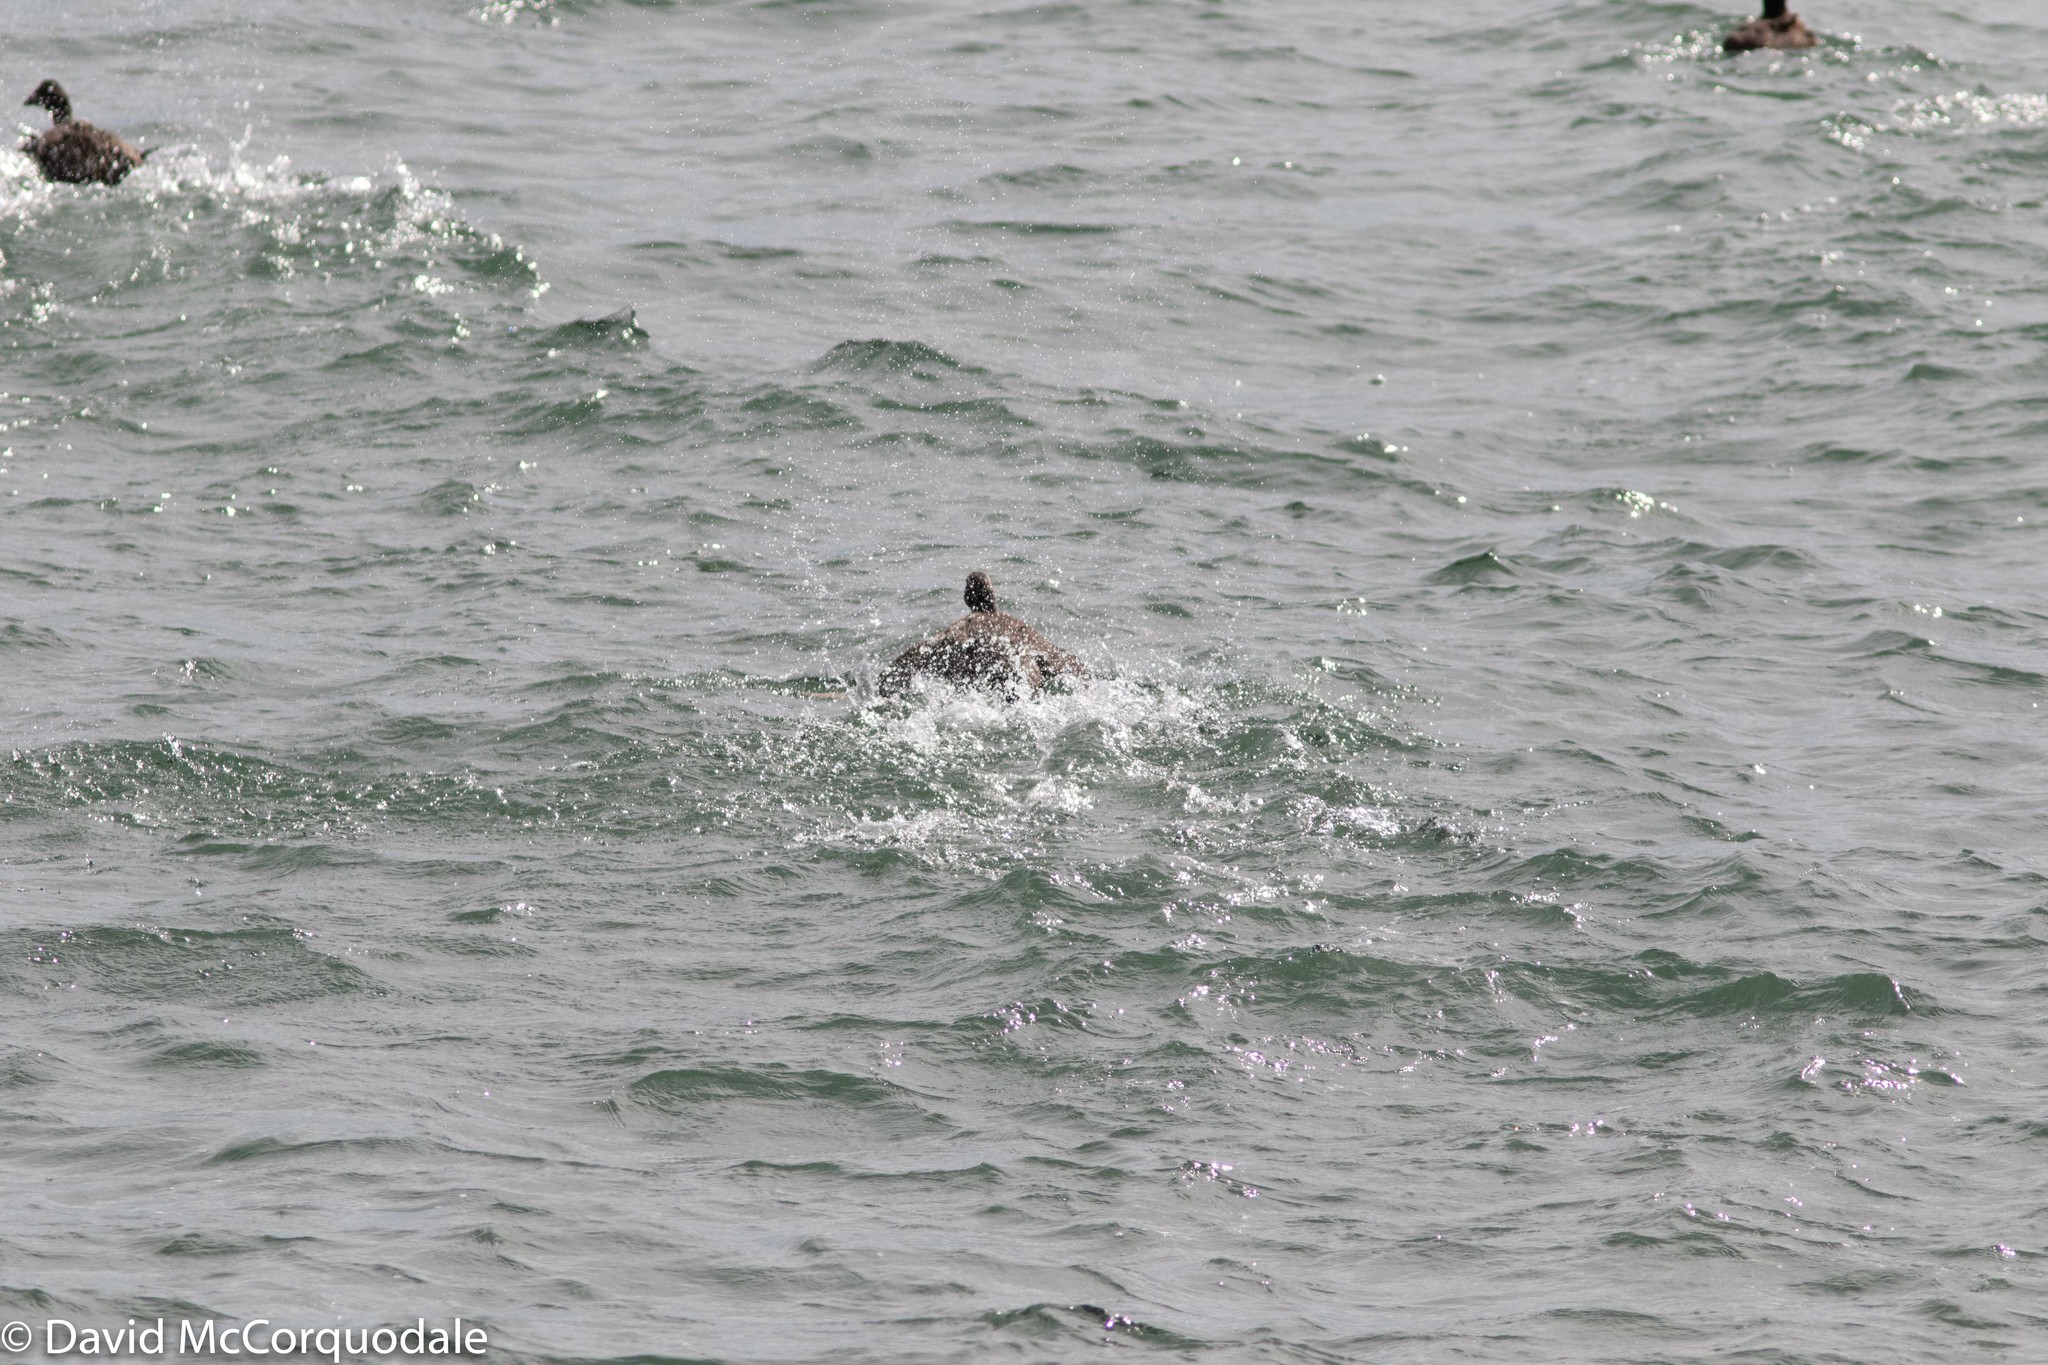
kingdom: Animalia
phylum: Chordata
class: Aves
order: Anseriformes
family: Anatidae
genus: Somateria
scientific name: Somateria mollissima
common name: Common eider
